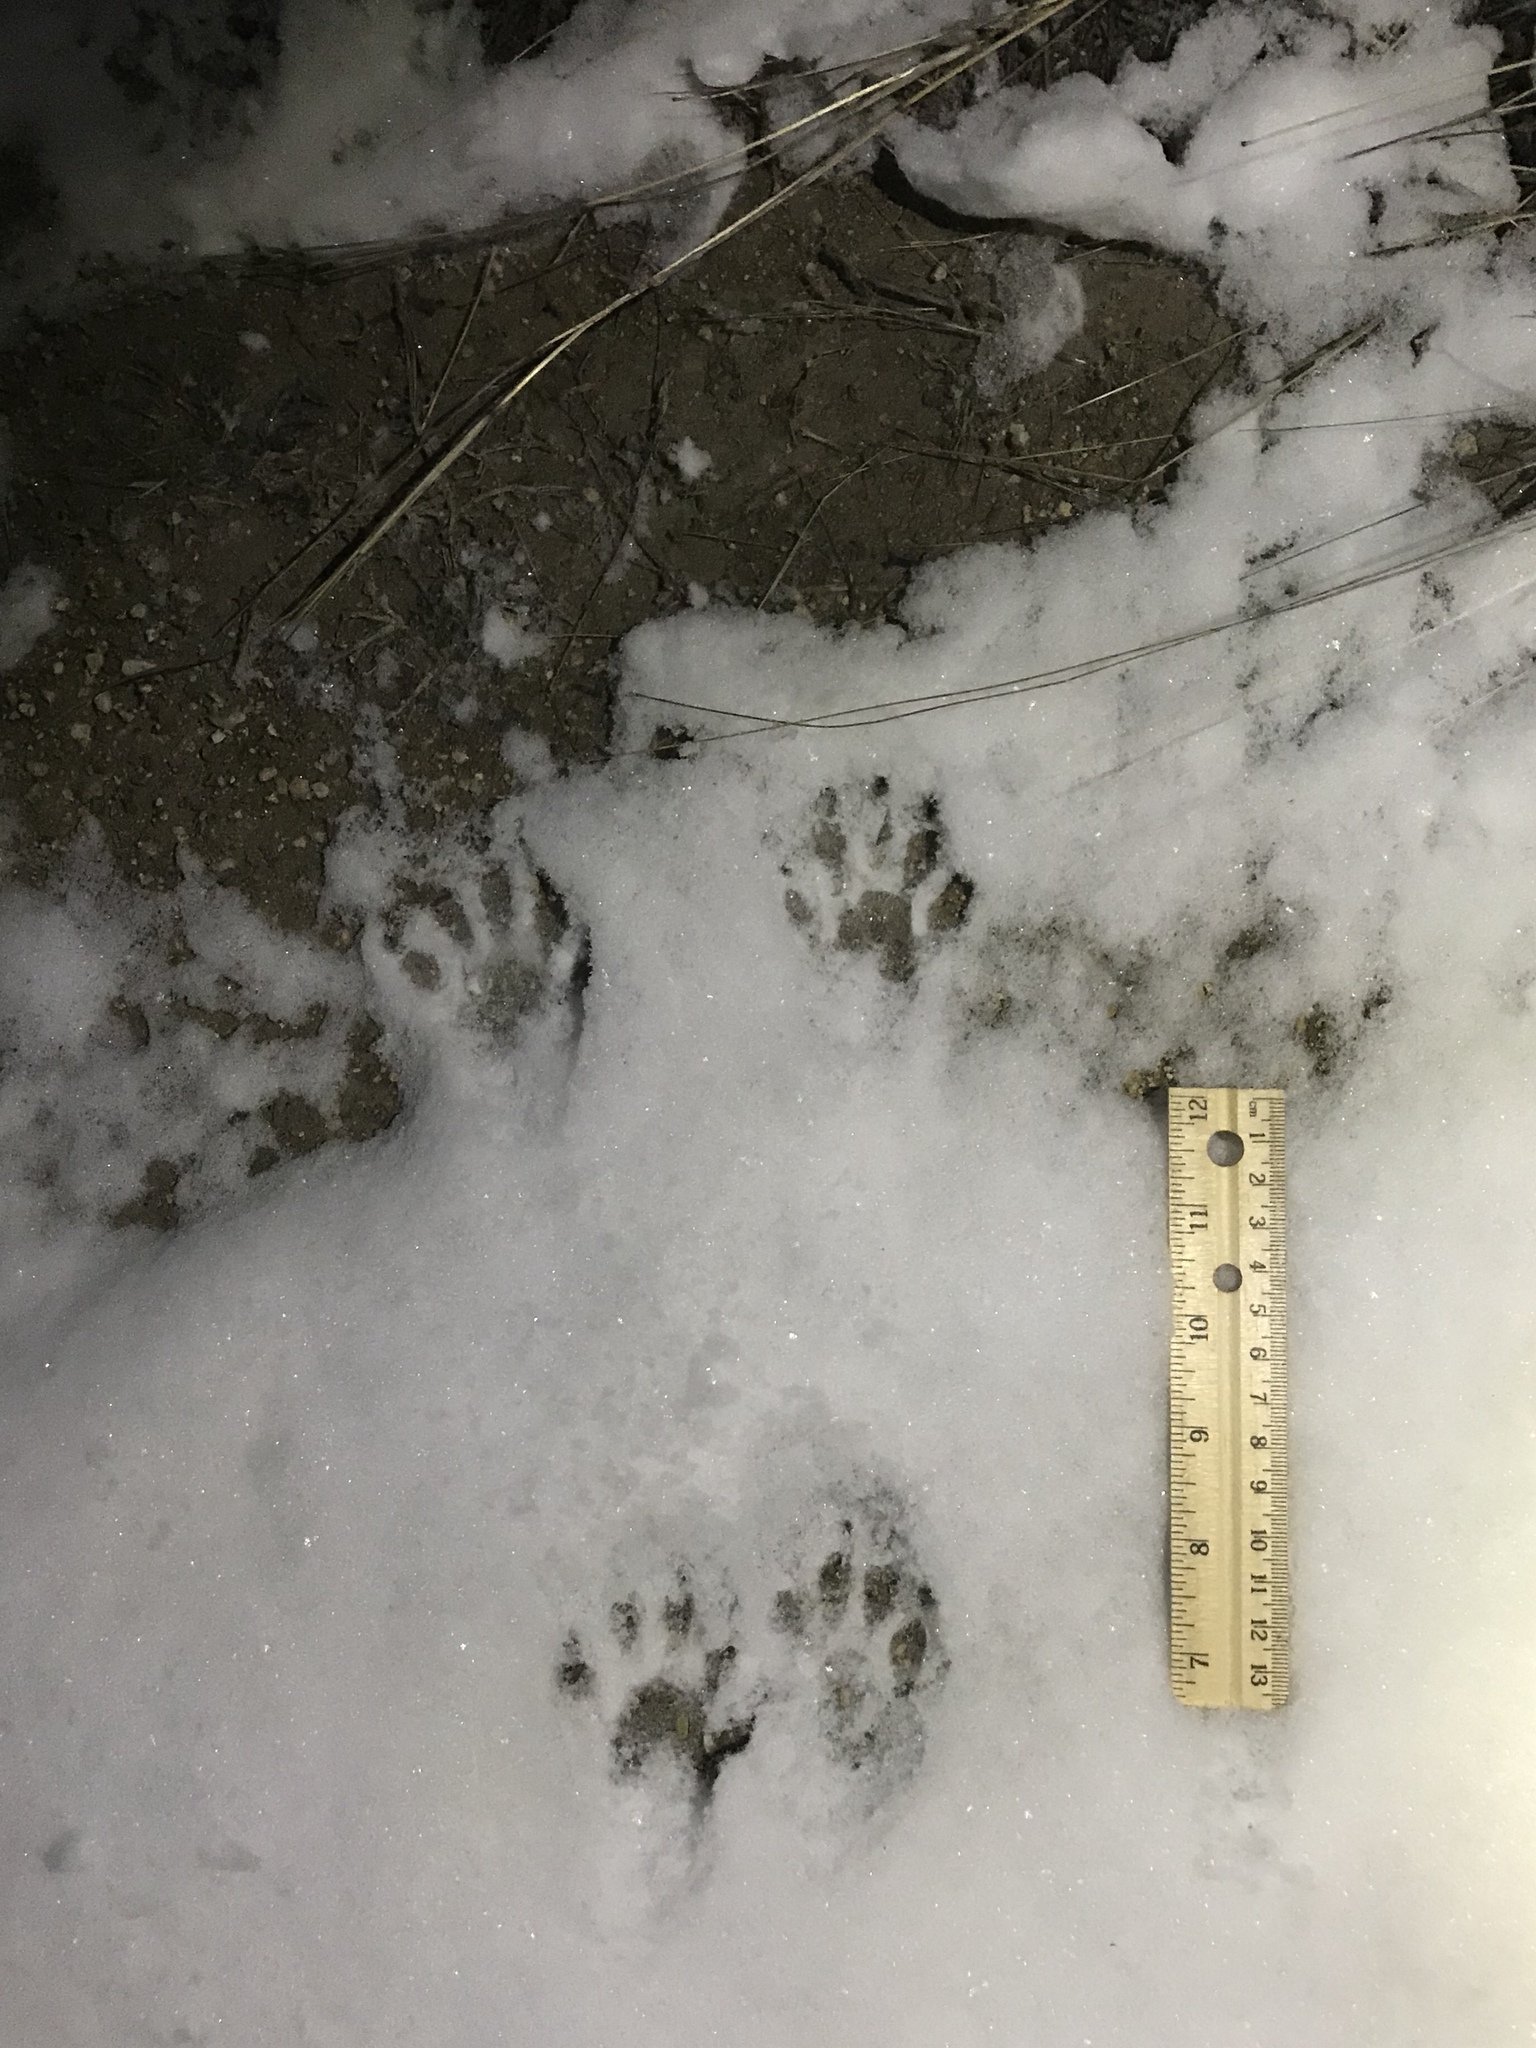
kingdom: Animalia
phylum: Chordata
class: Mammalia
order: Carnivora
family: Procyonidae
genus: Procyon
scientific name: Procyon lotor
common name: Raccoon
